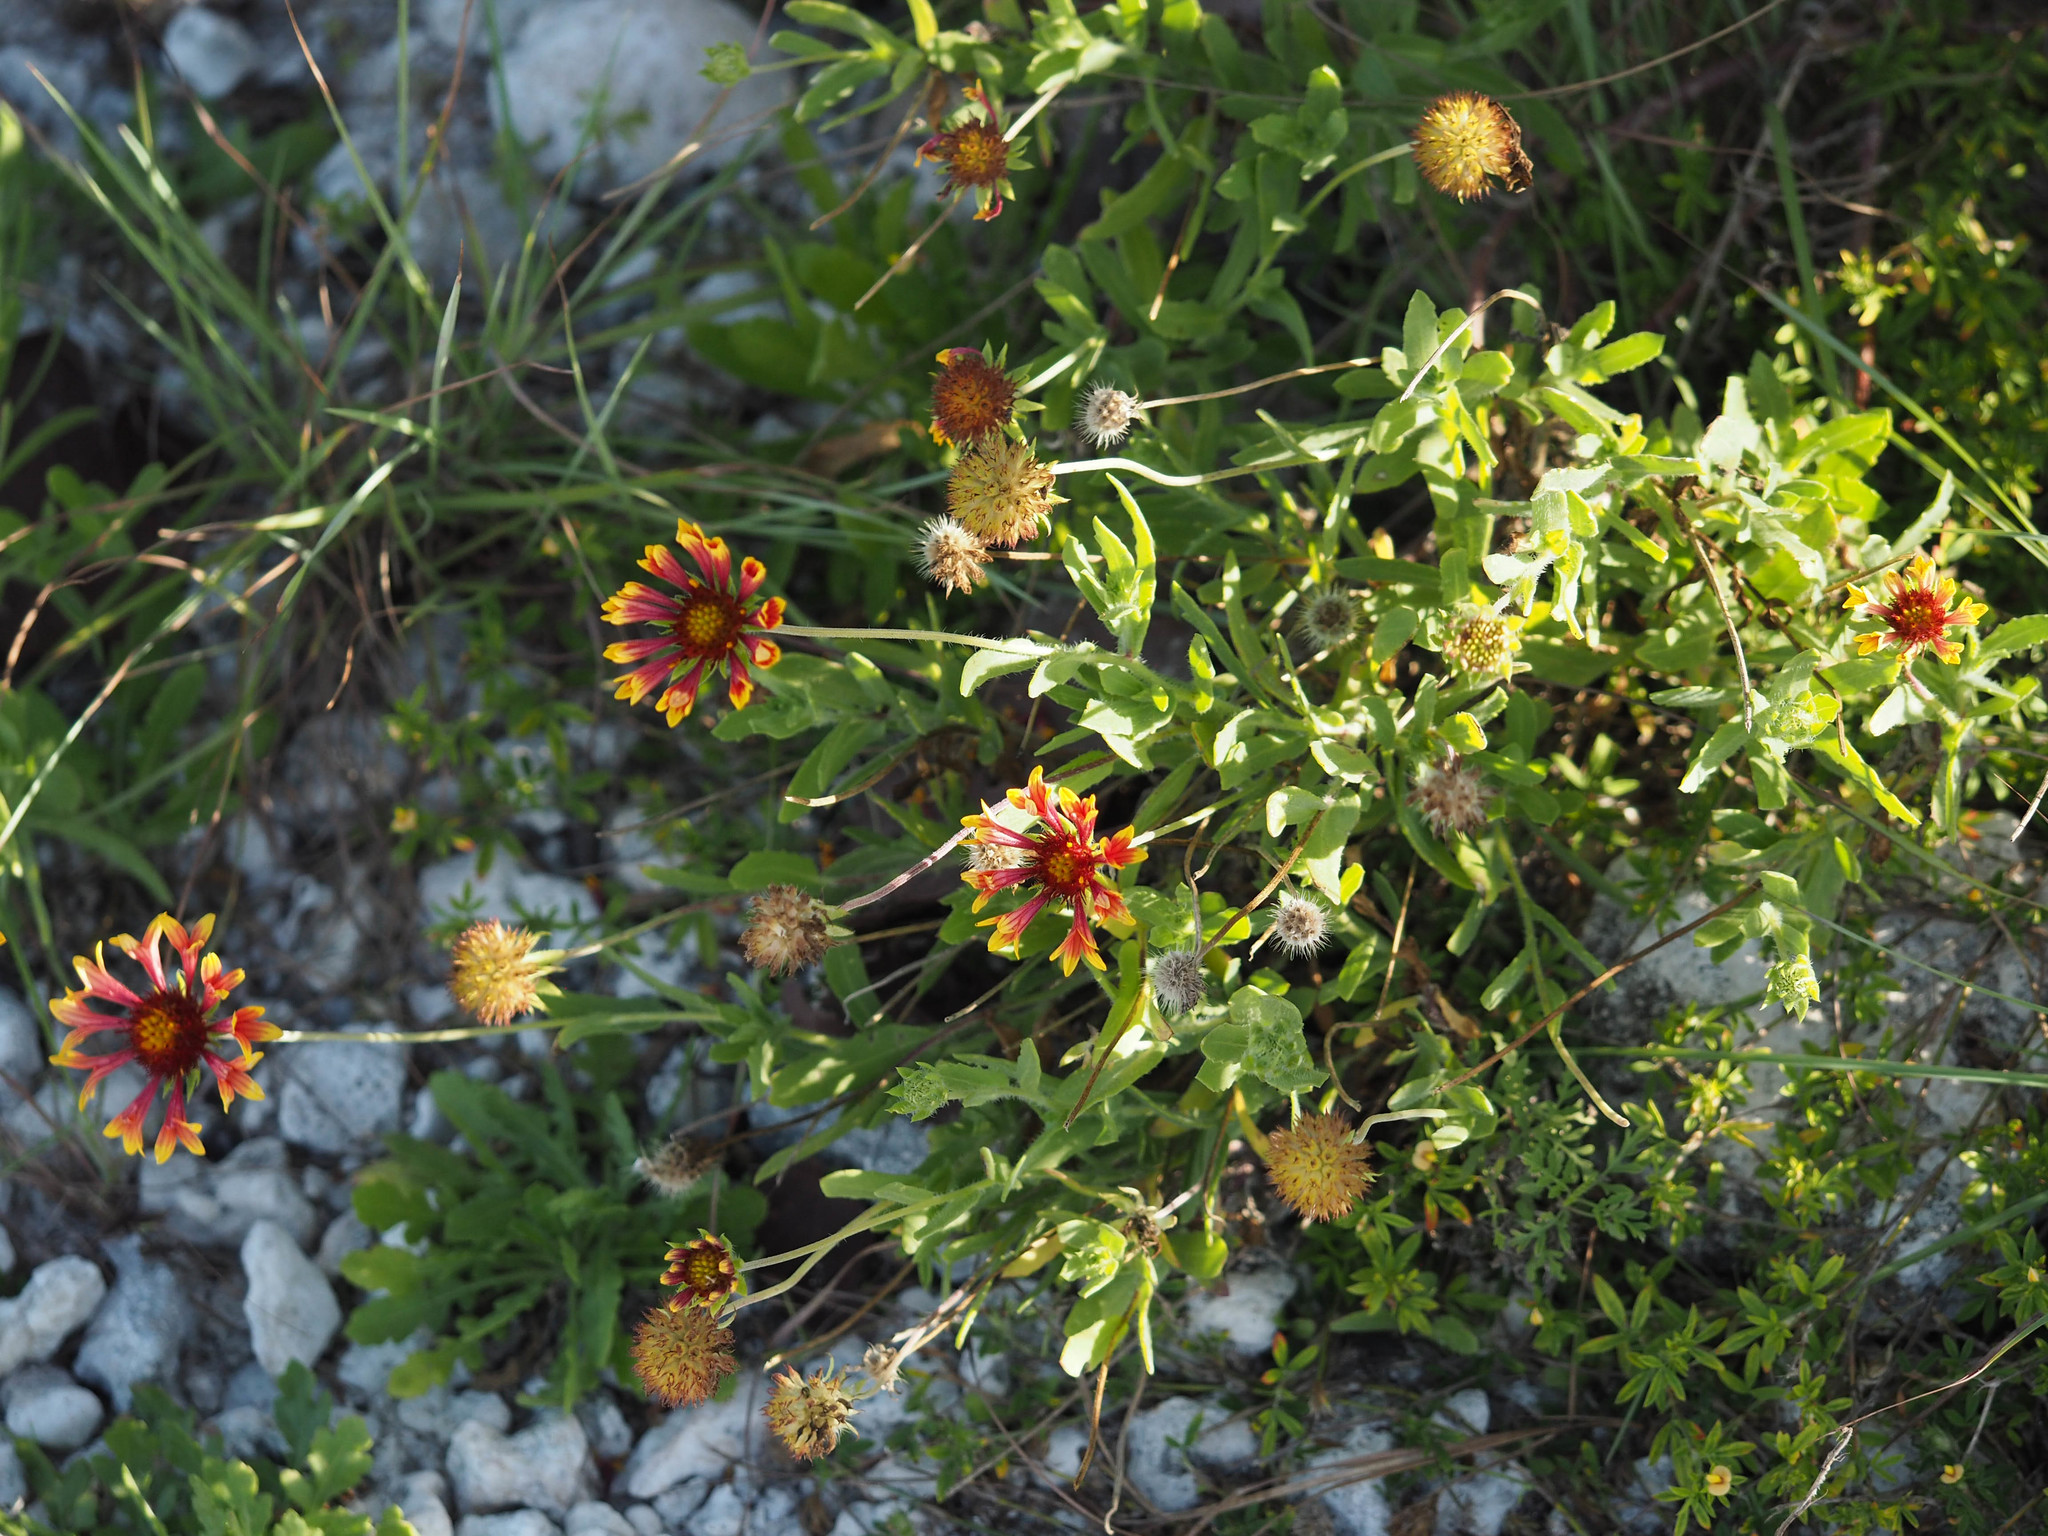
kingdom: Plantae
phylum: Tracheophyta
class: Magnoliopsida
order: Asterales
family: Asteraceae
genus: Gaillardia
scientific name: Gaillardia pulchella
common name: Firewheel
